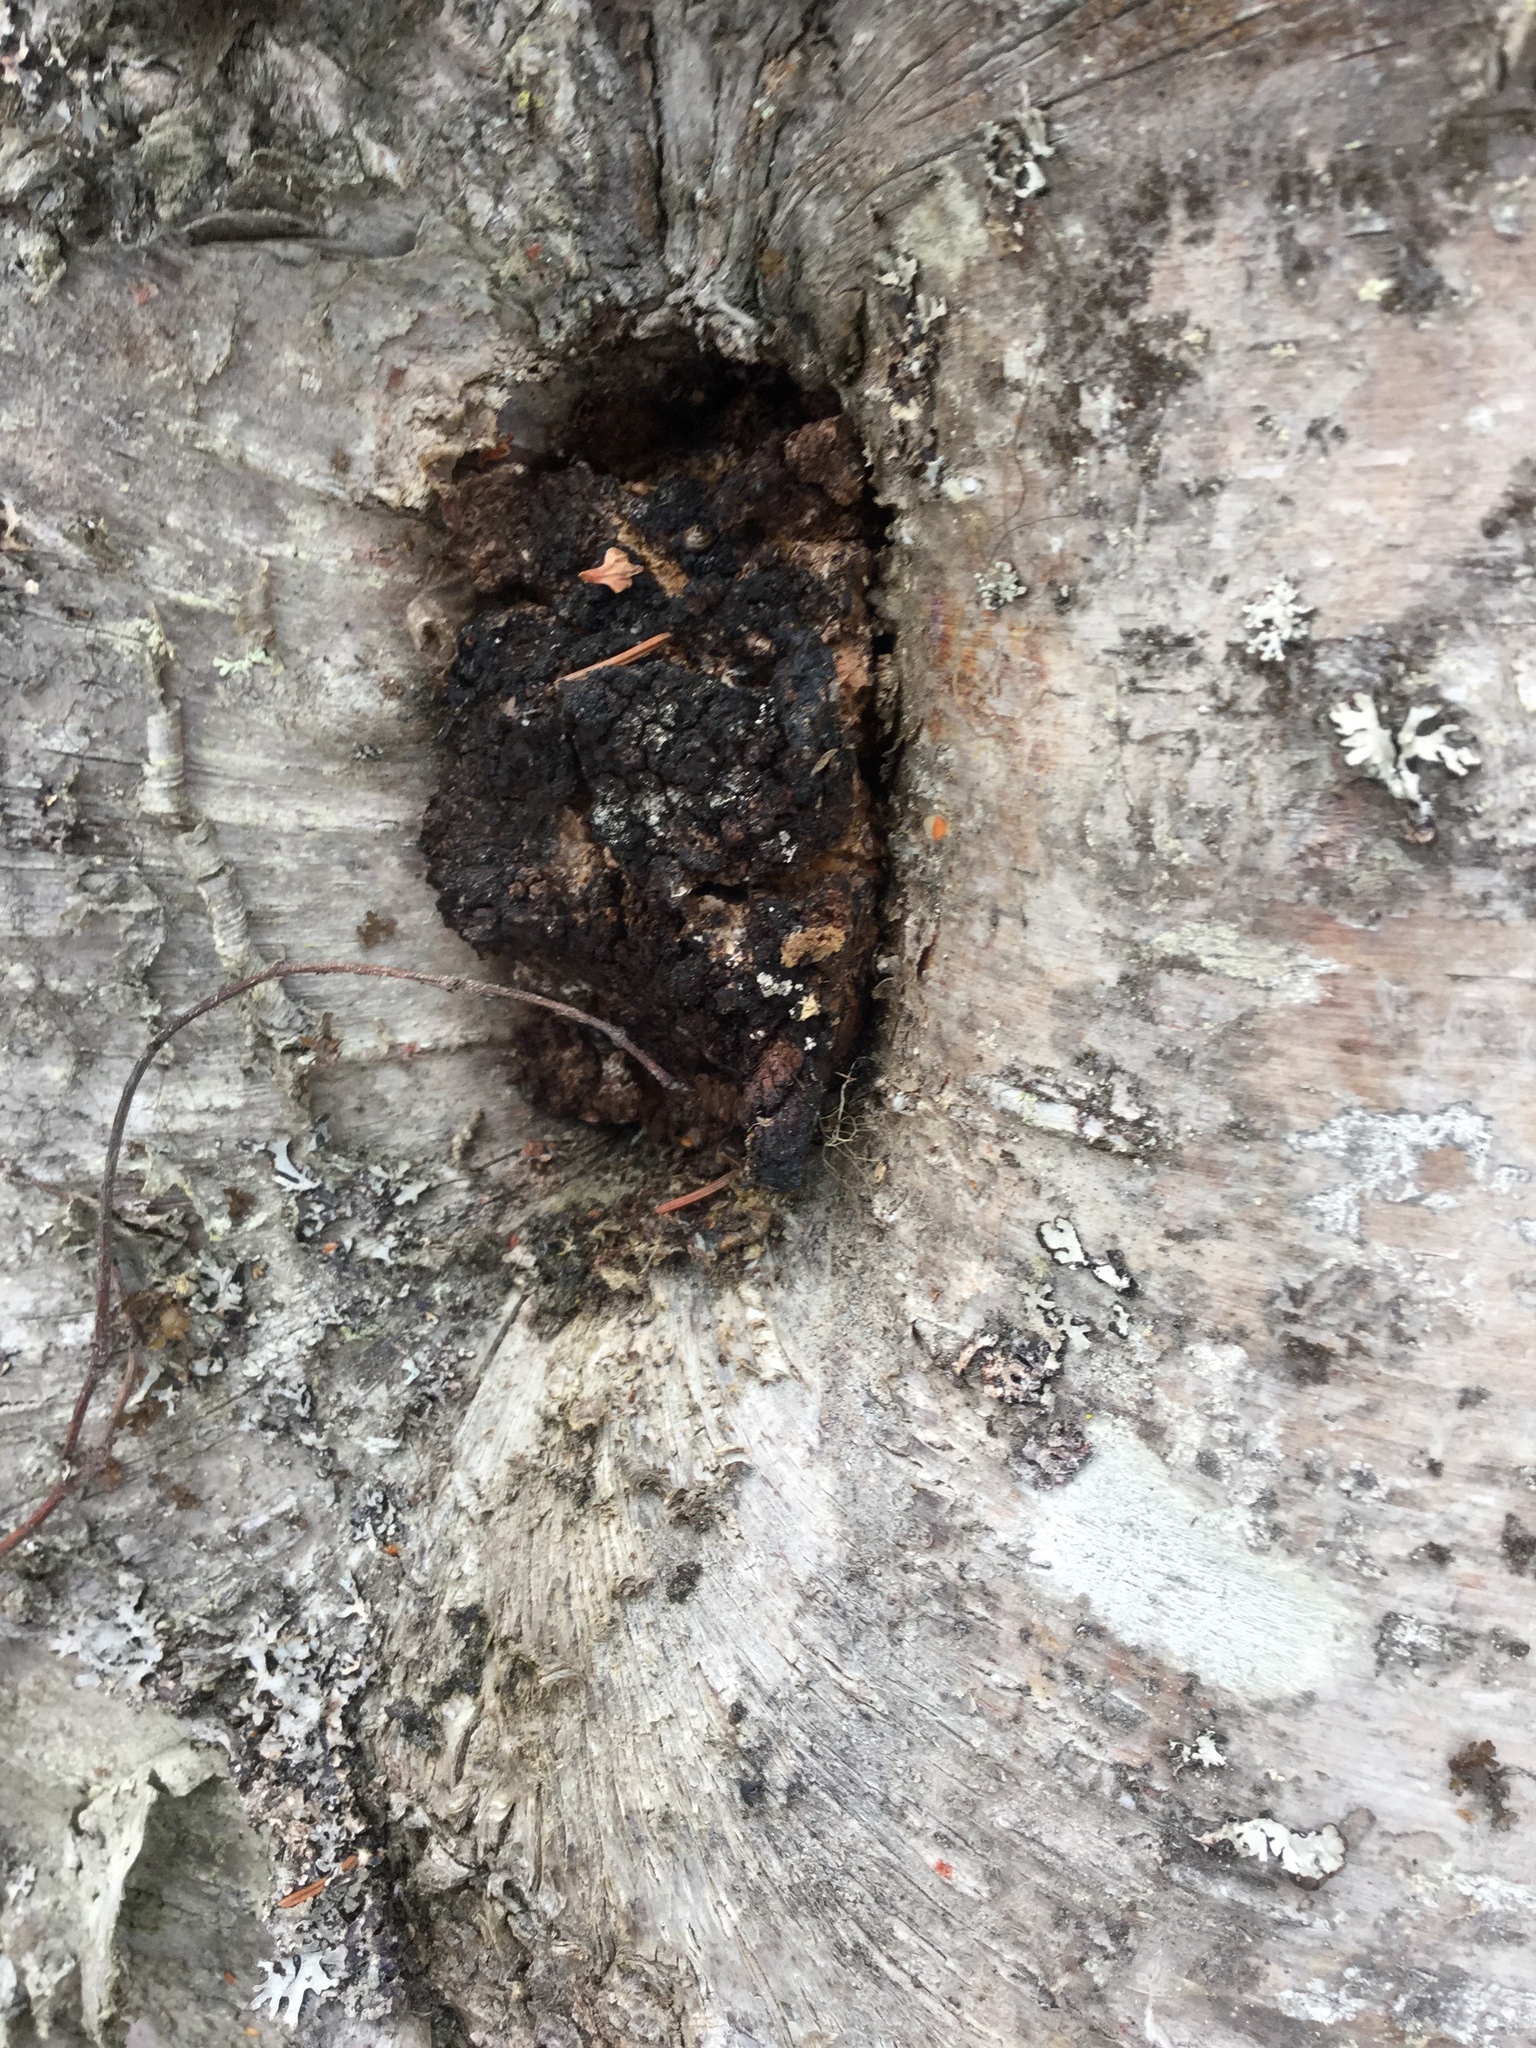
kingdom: Fungi
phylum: Basidiomycota
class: Agaricomycetes
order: Hymenochaetales
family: Hymenochaetaceae
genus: Inonotus
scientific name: Inonotus obliquus
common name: Chaga
